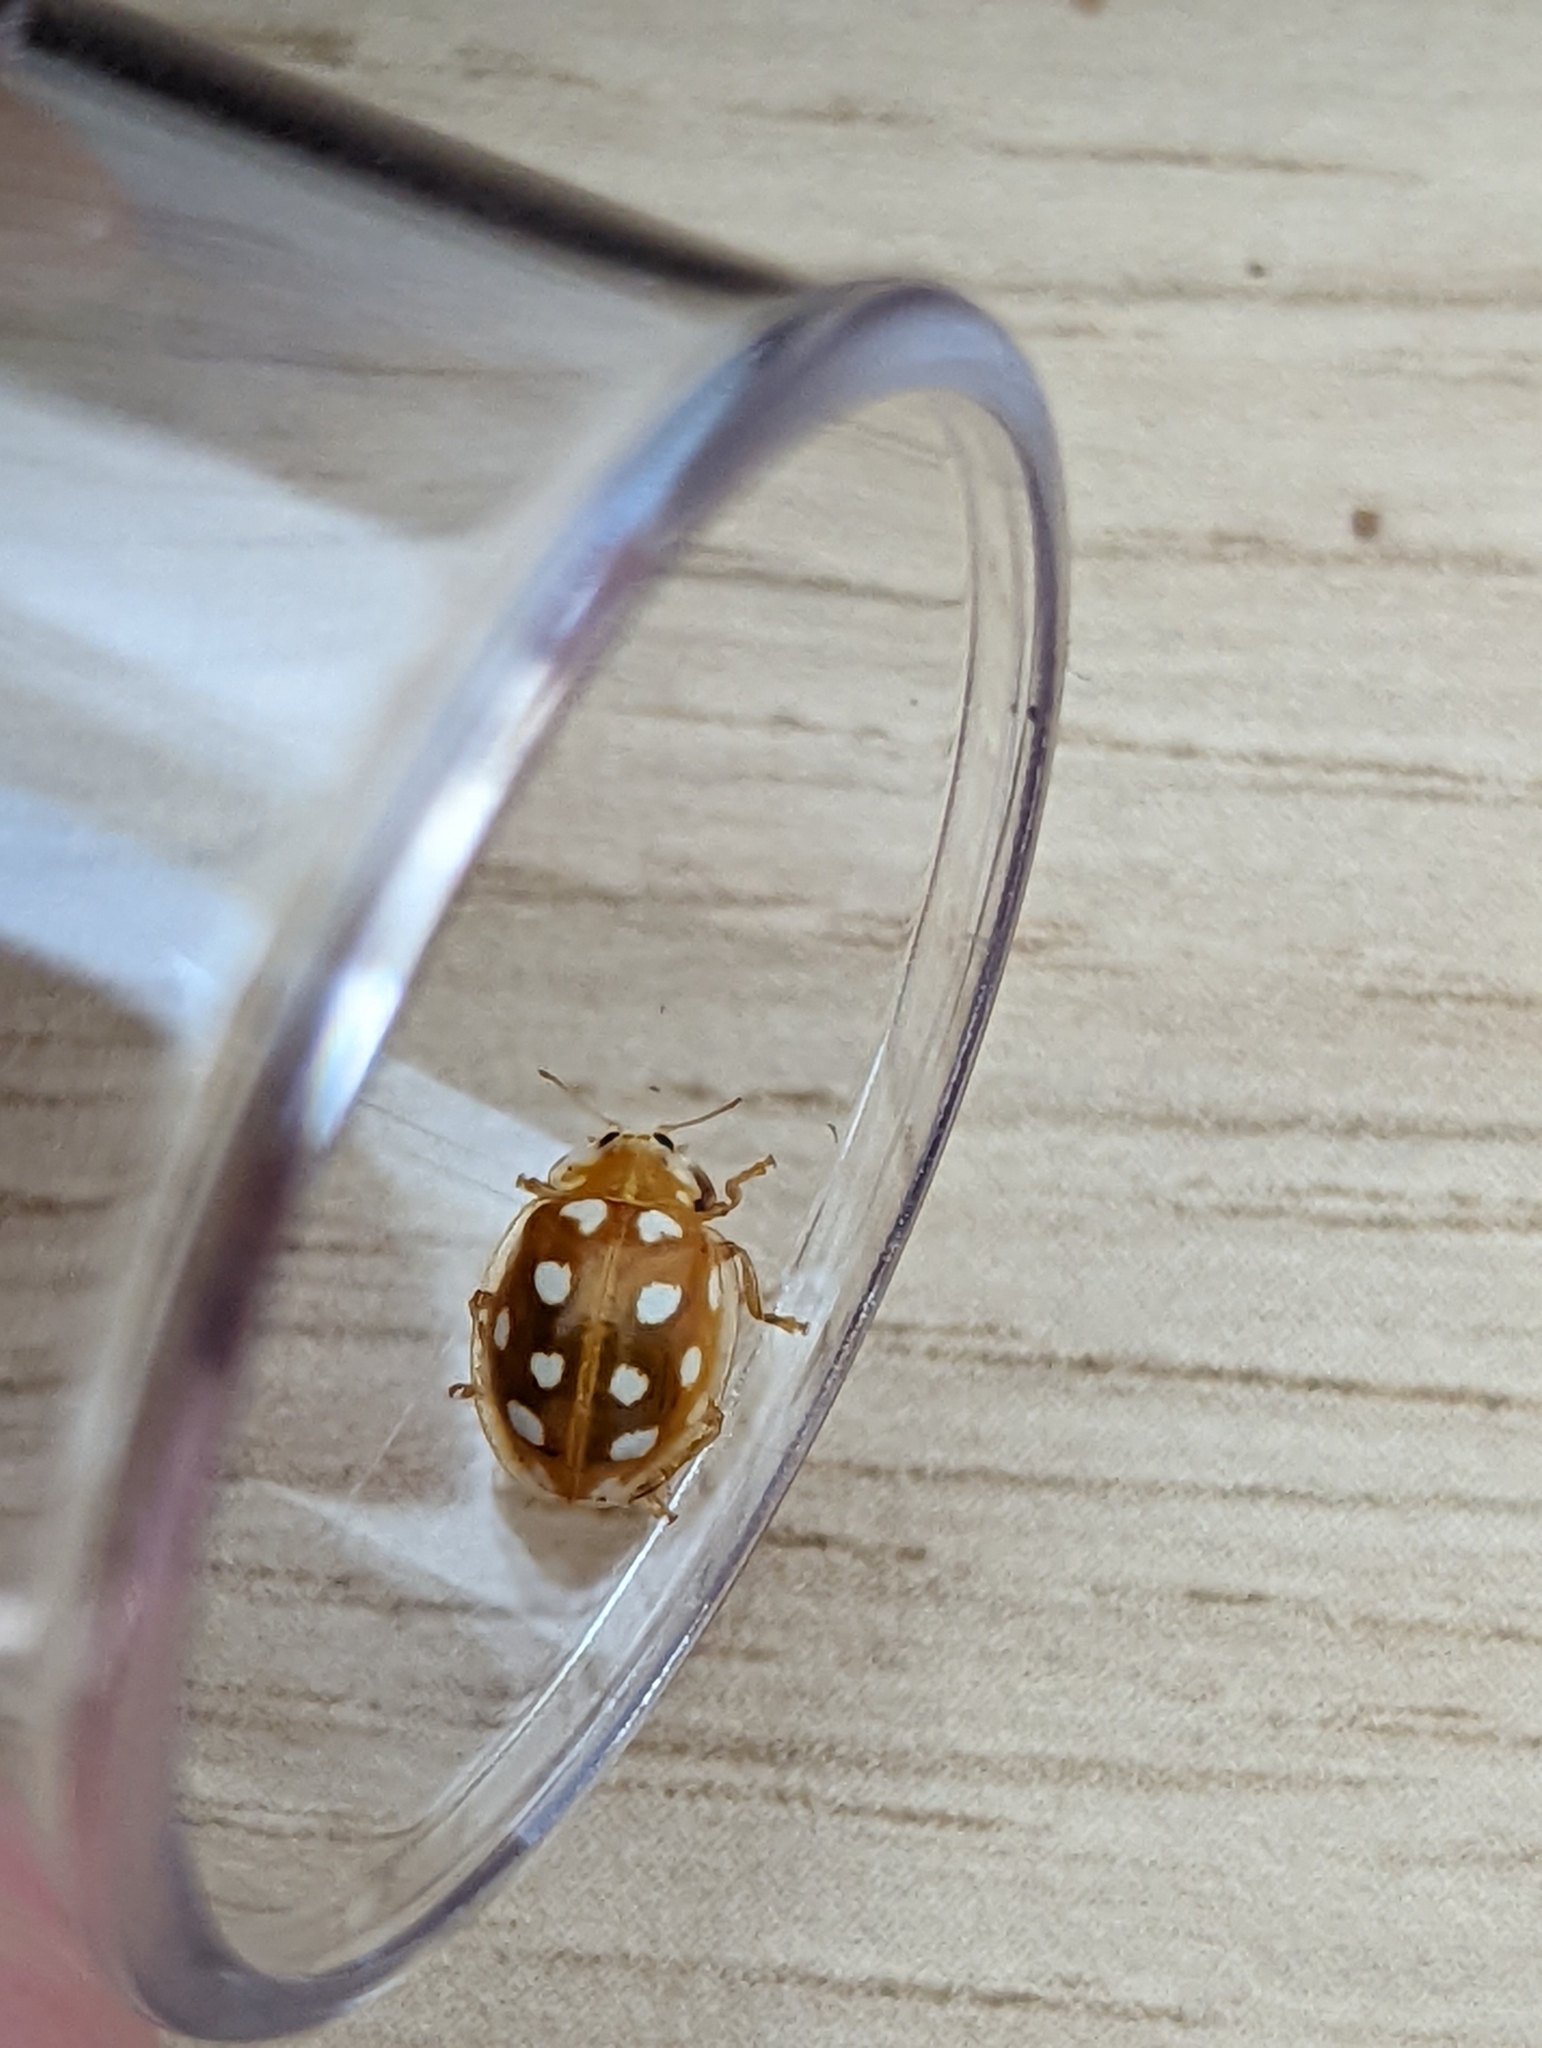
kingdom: Animalia
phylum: Arthropoda
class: Insecta
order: Coleoptera
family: Coccinellidae
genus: Halyzia
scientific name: Halyzia sedecimguttata
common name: Orange ladybird
